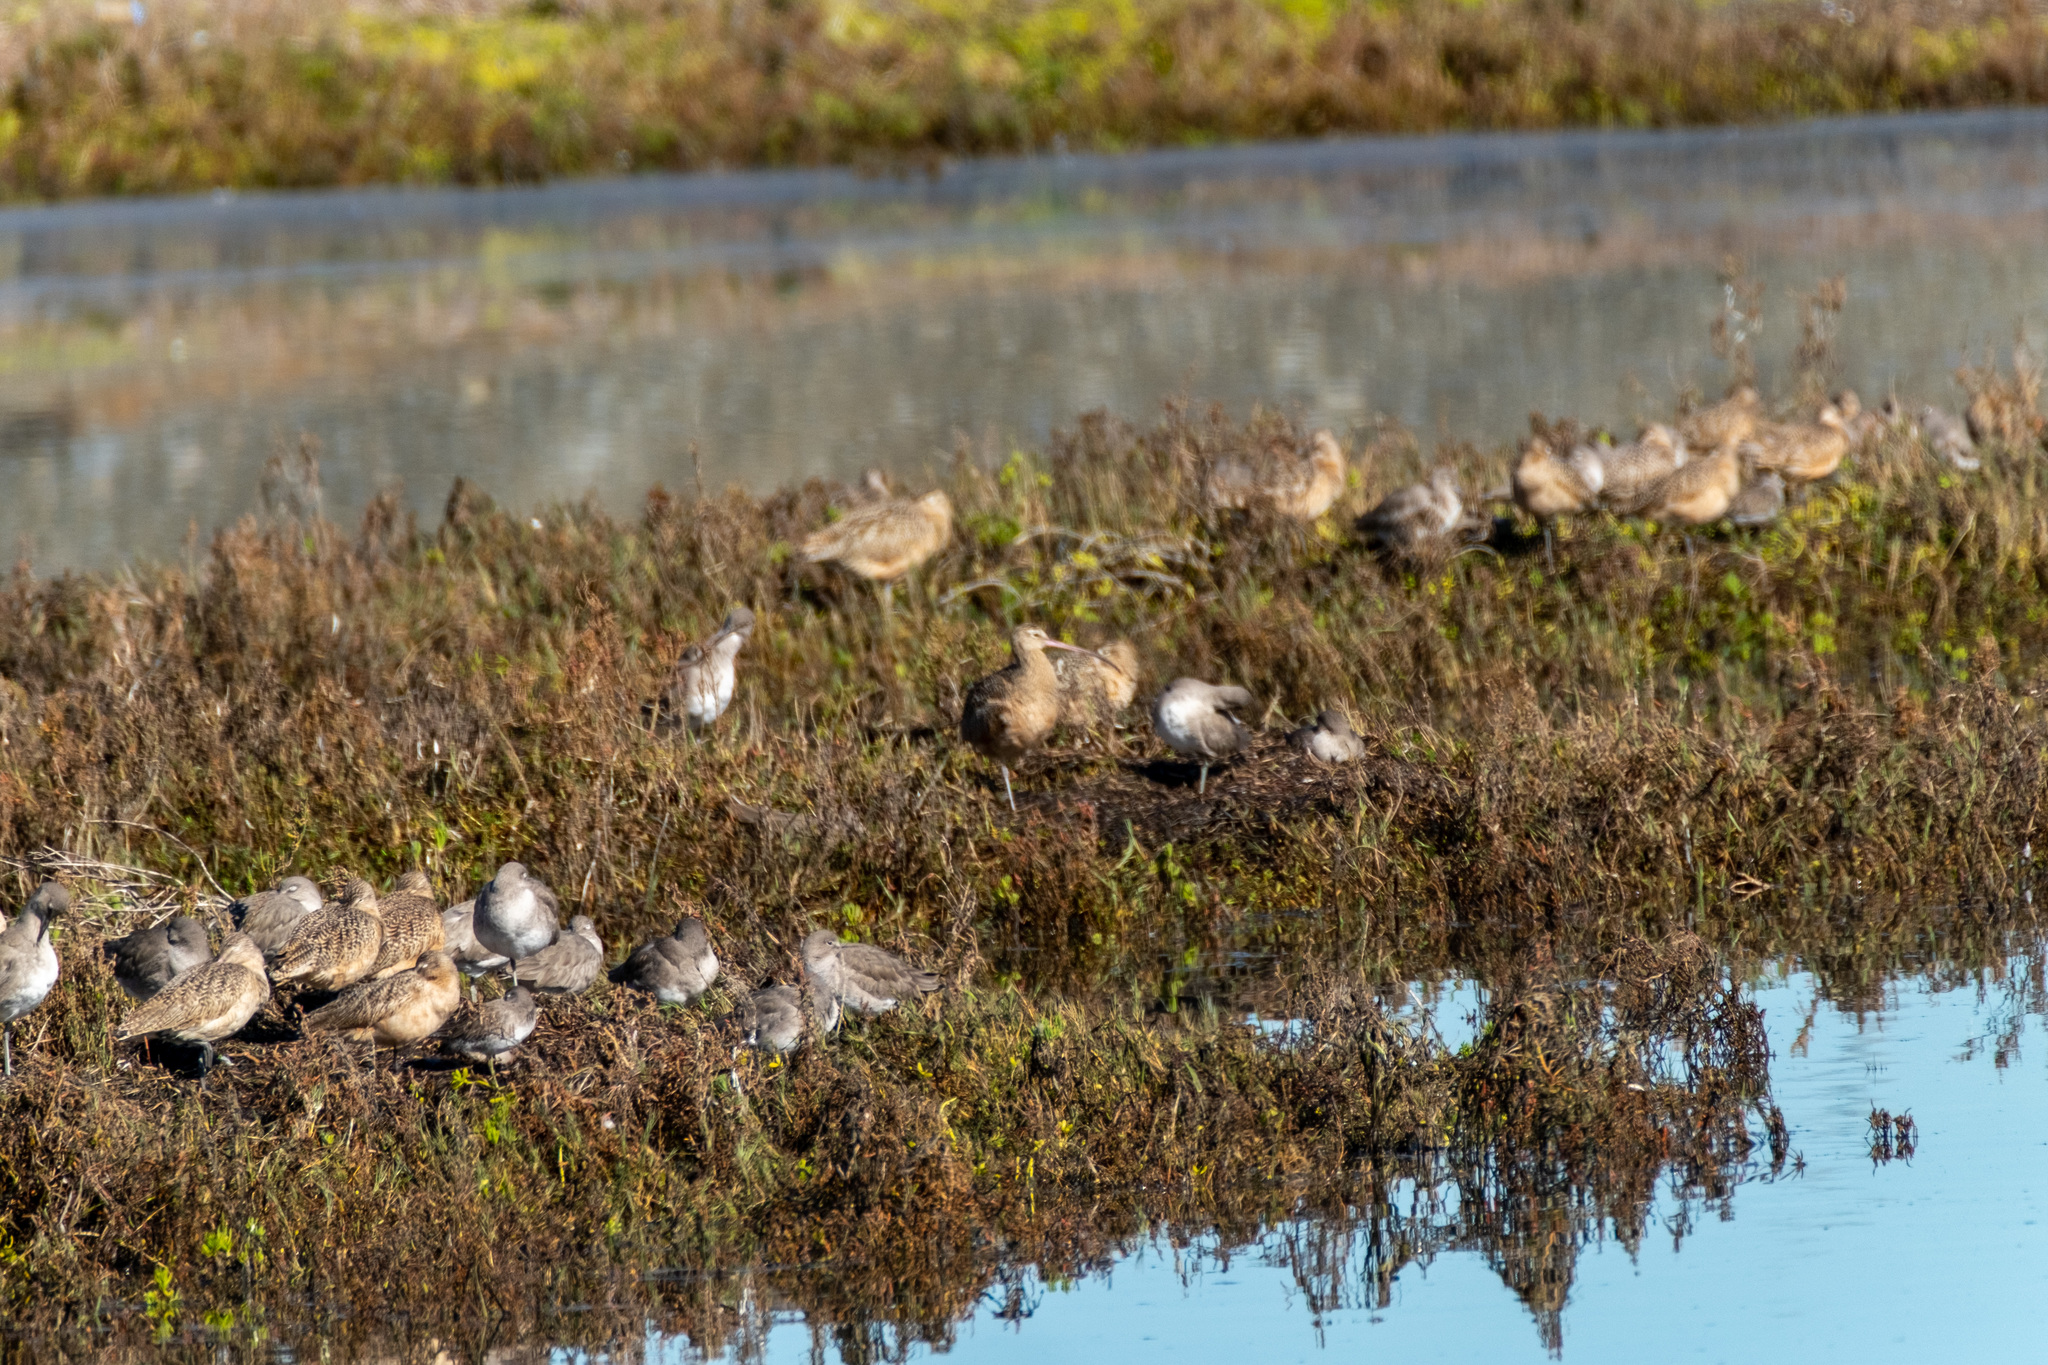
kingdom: Animalia
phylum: Chordata
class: Aves
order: Charadriiformes
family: Scolopacidae
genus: Numenius
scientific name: Numenius americanus
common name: Long-billed curlew
